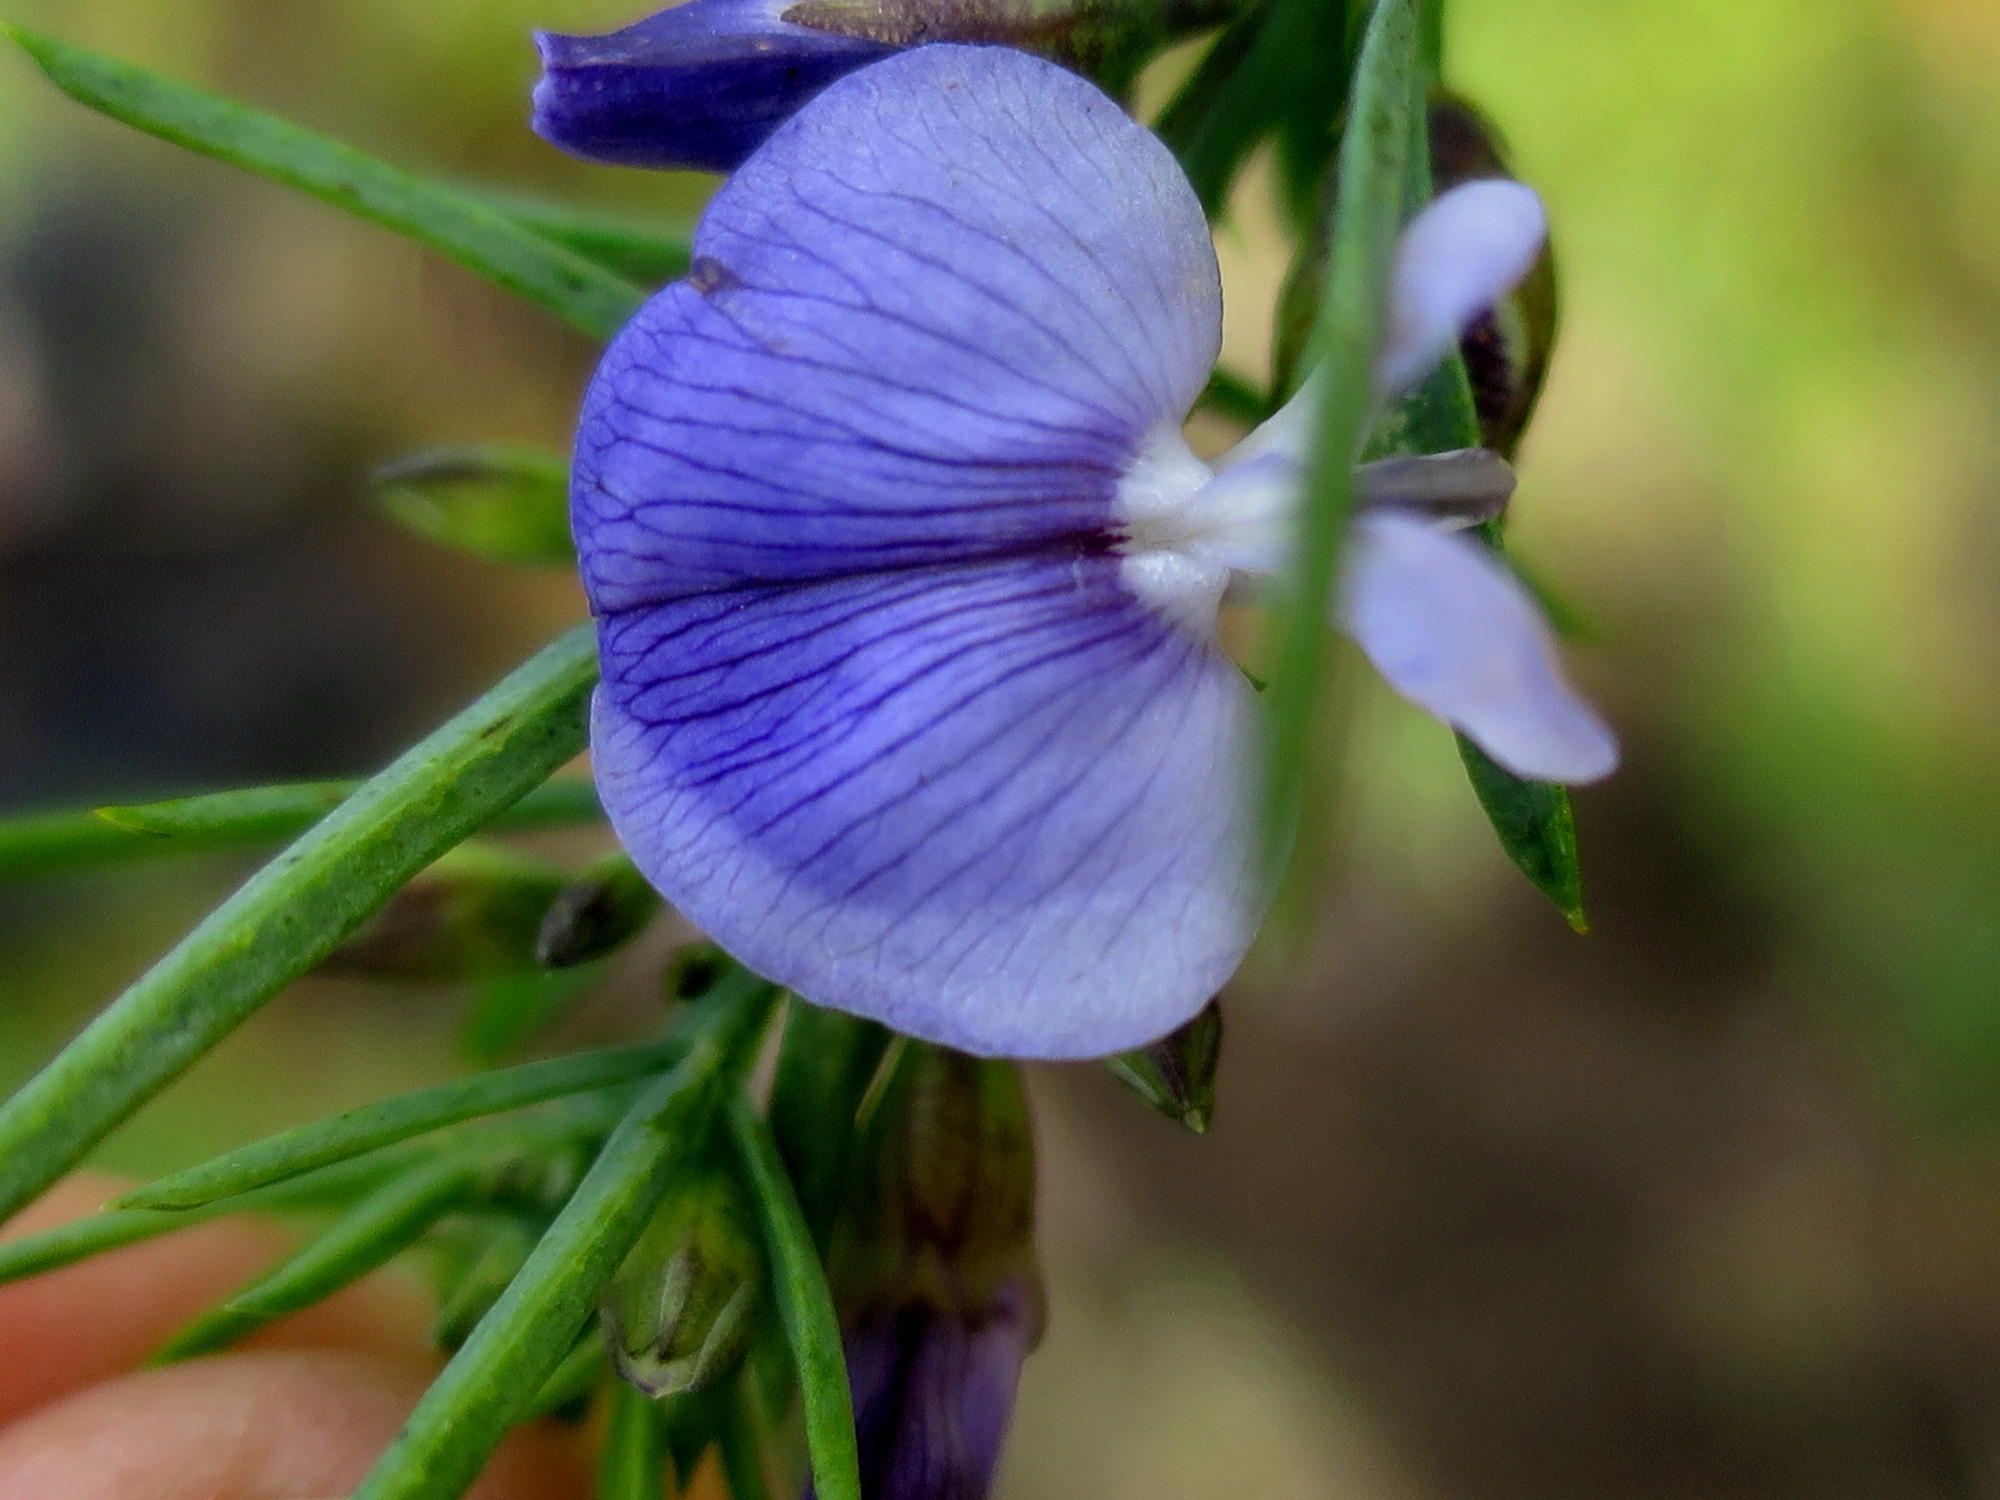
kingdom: Plantae
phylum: Tracheophyta
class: Magnoliopsida
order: Fabales
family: Fabaceae
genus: Psoralea
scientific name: Psoralea triflora
